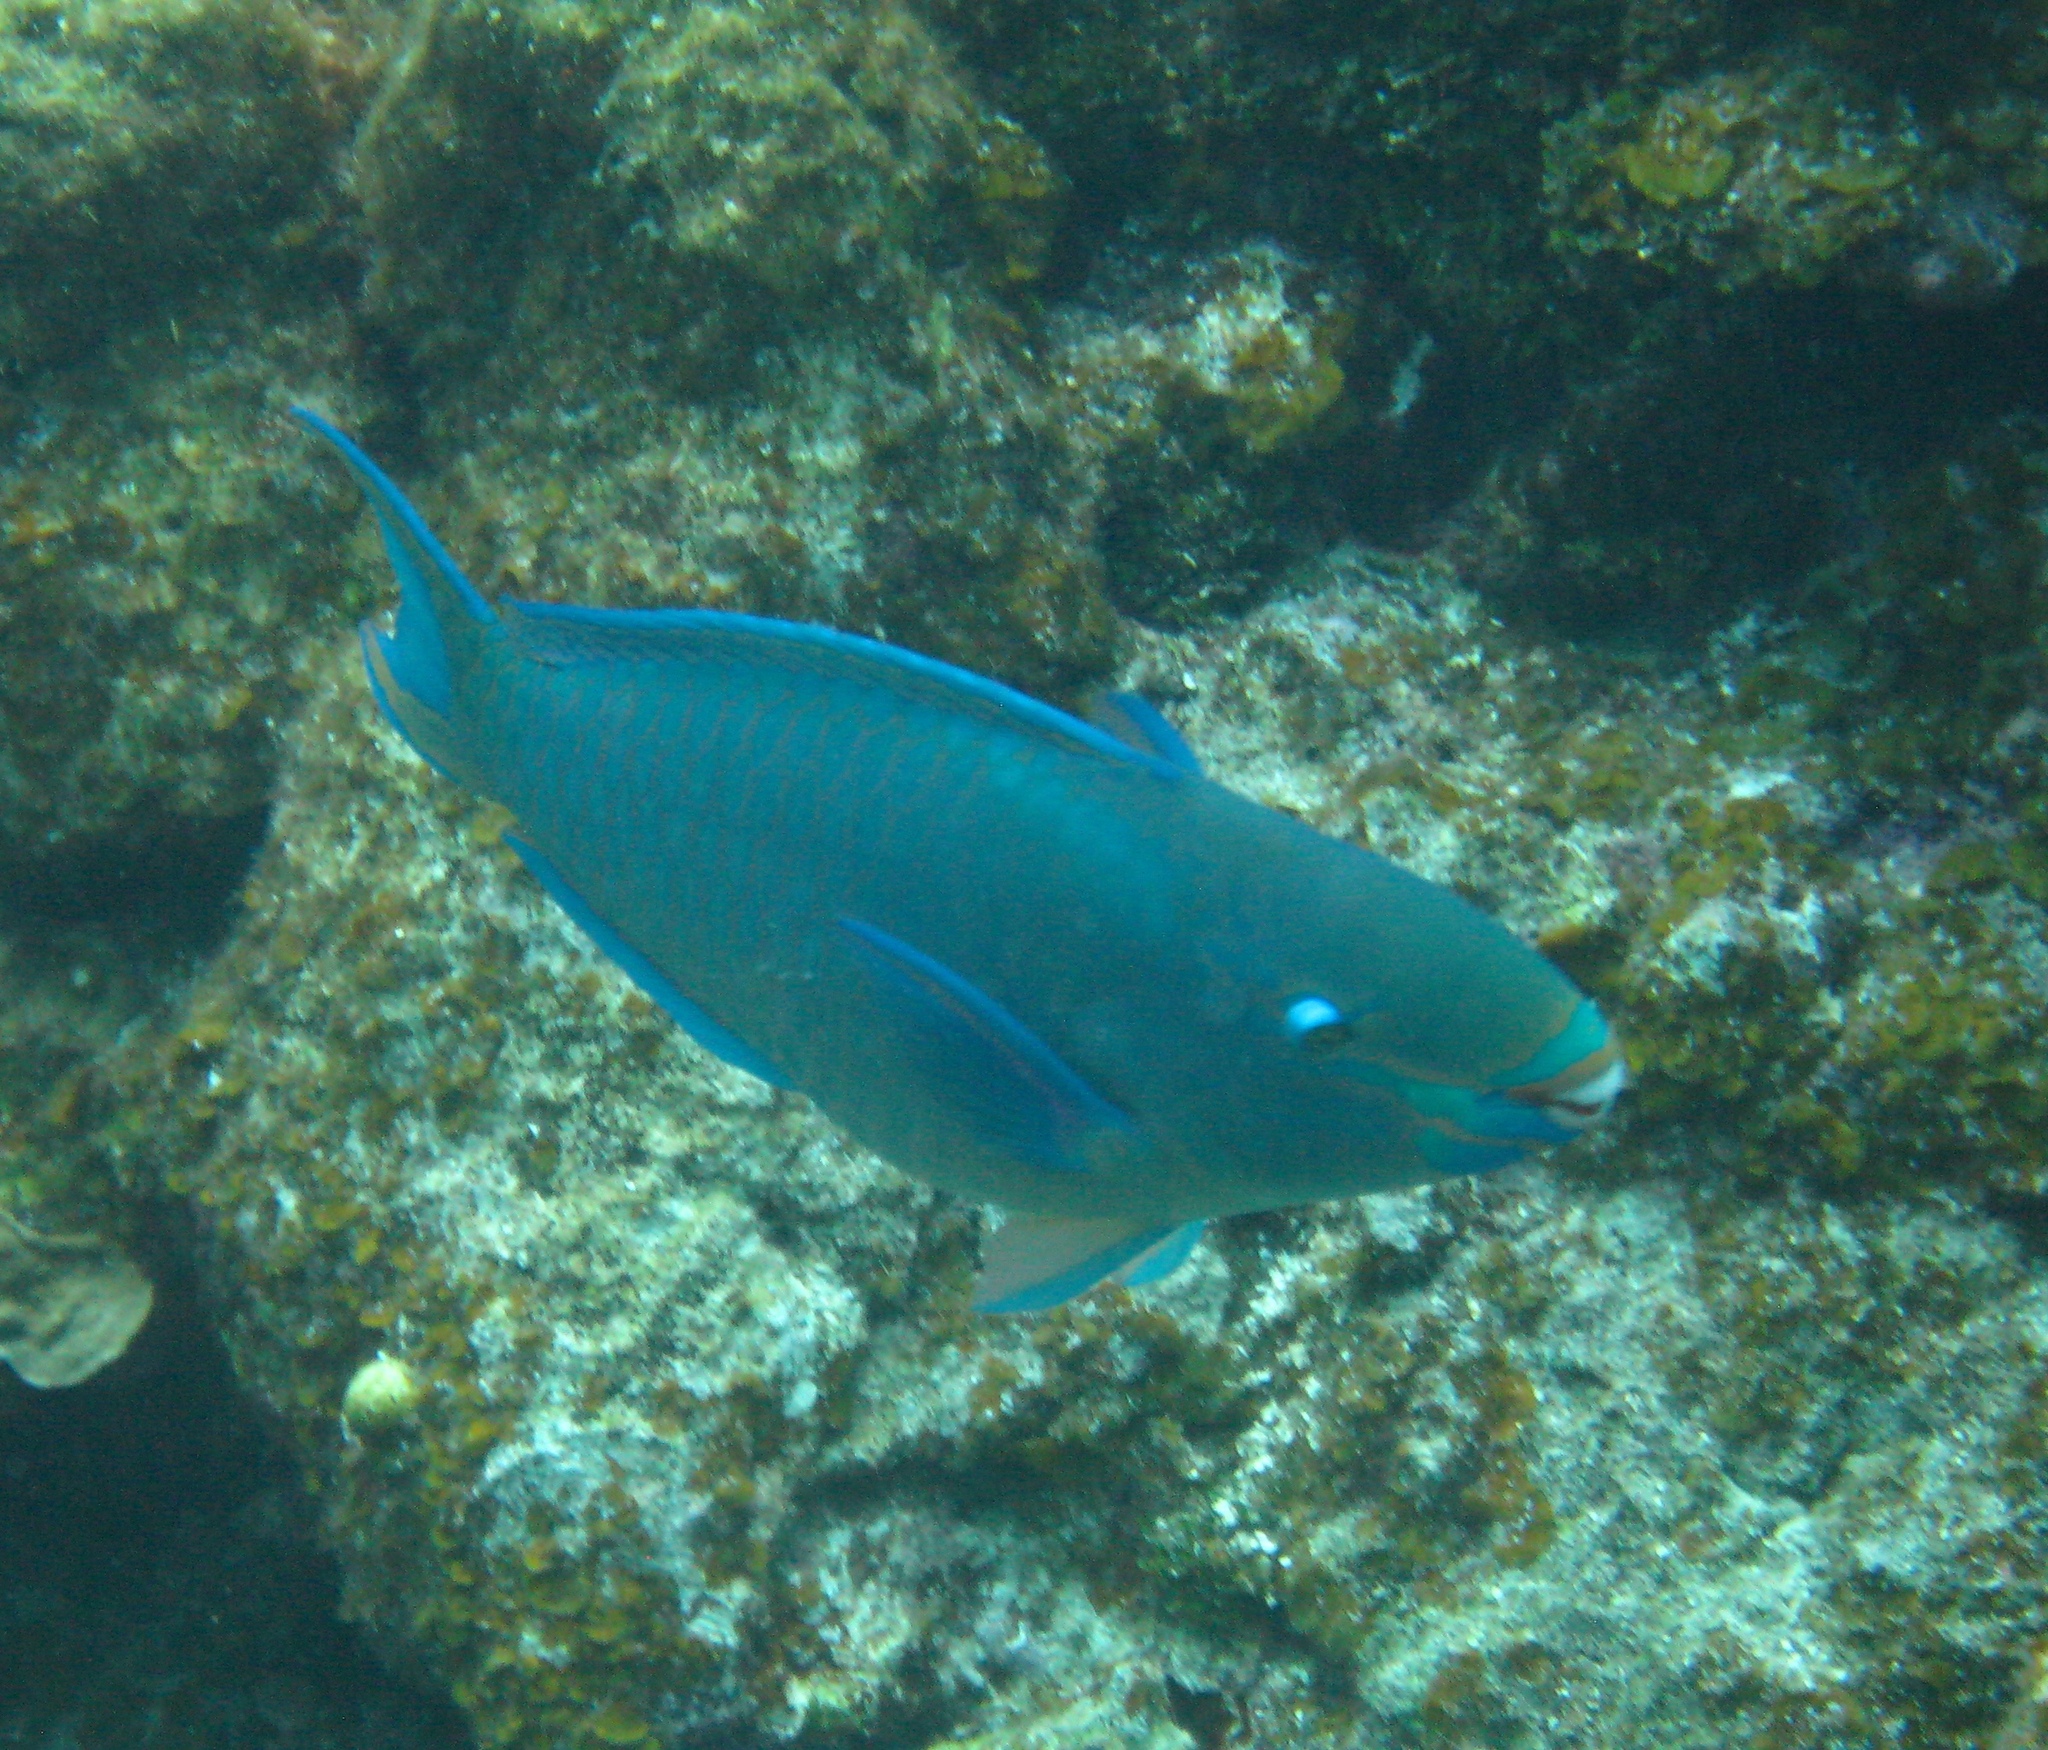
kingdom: Animalia
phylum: Chordata
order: Perciformes
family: Scaridae
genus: Scarus
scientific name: Scarus vetula
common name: Queen parrotfish
